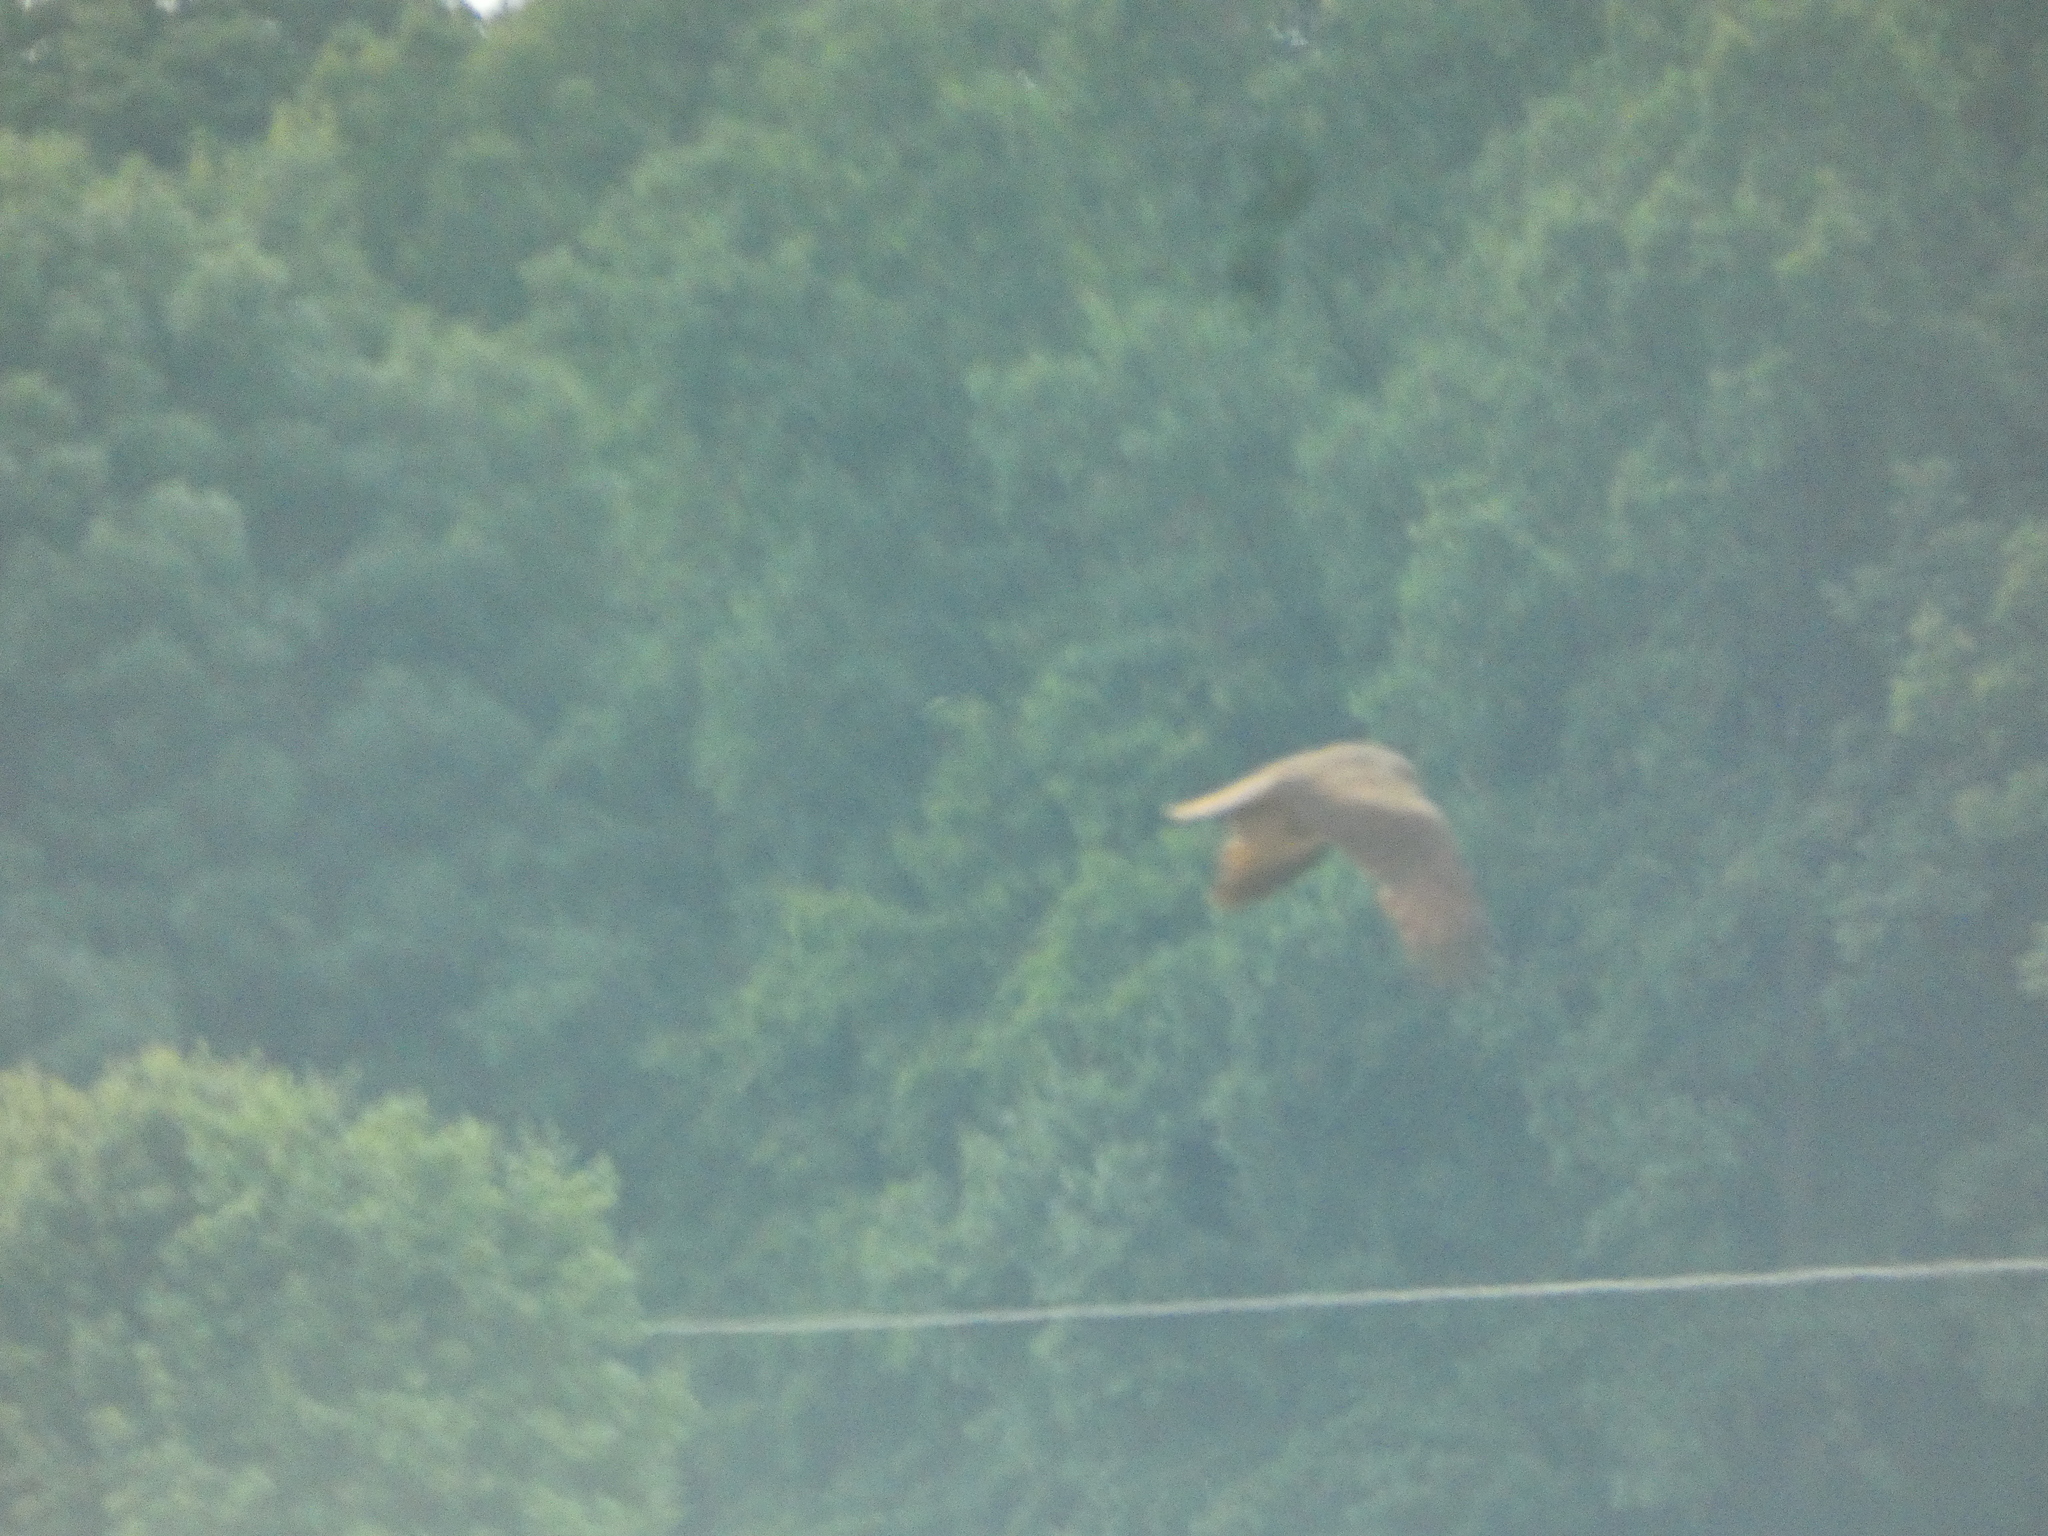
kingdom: Animalia
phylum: Chordata
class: Aves
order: Accipitriformes
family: Accipitridae
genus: Milvus
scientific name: Milvus migrans
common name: Black kite
